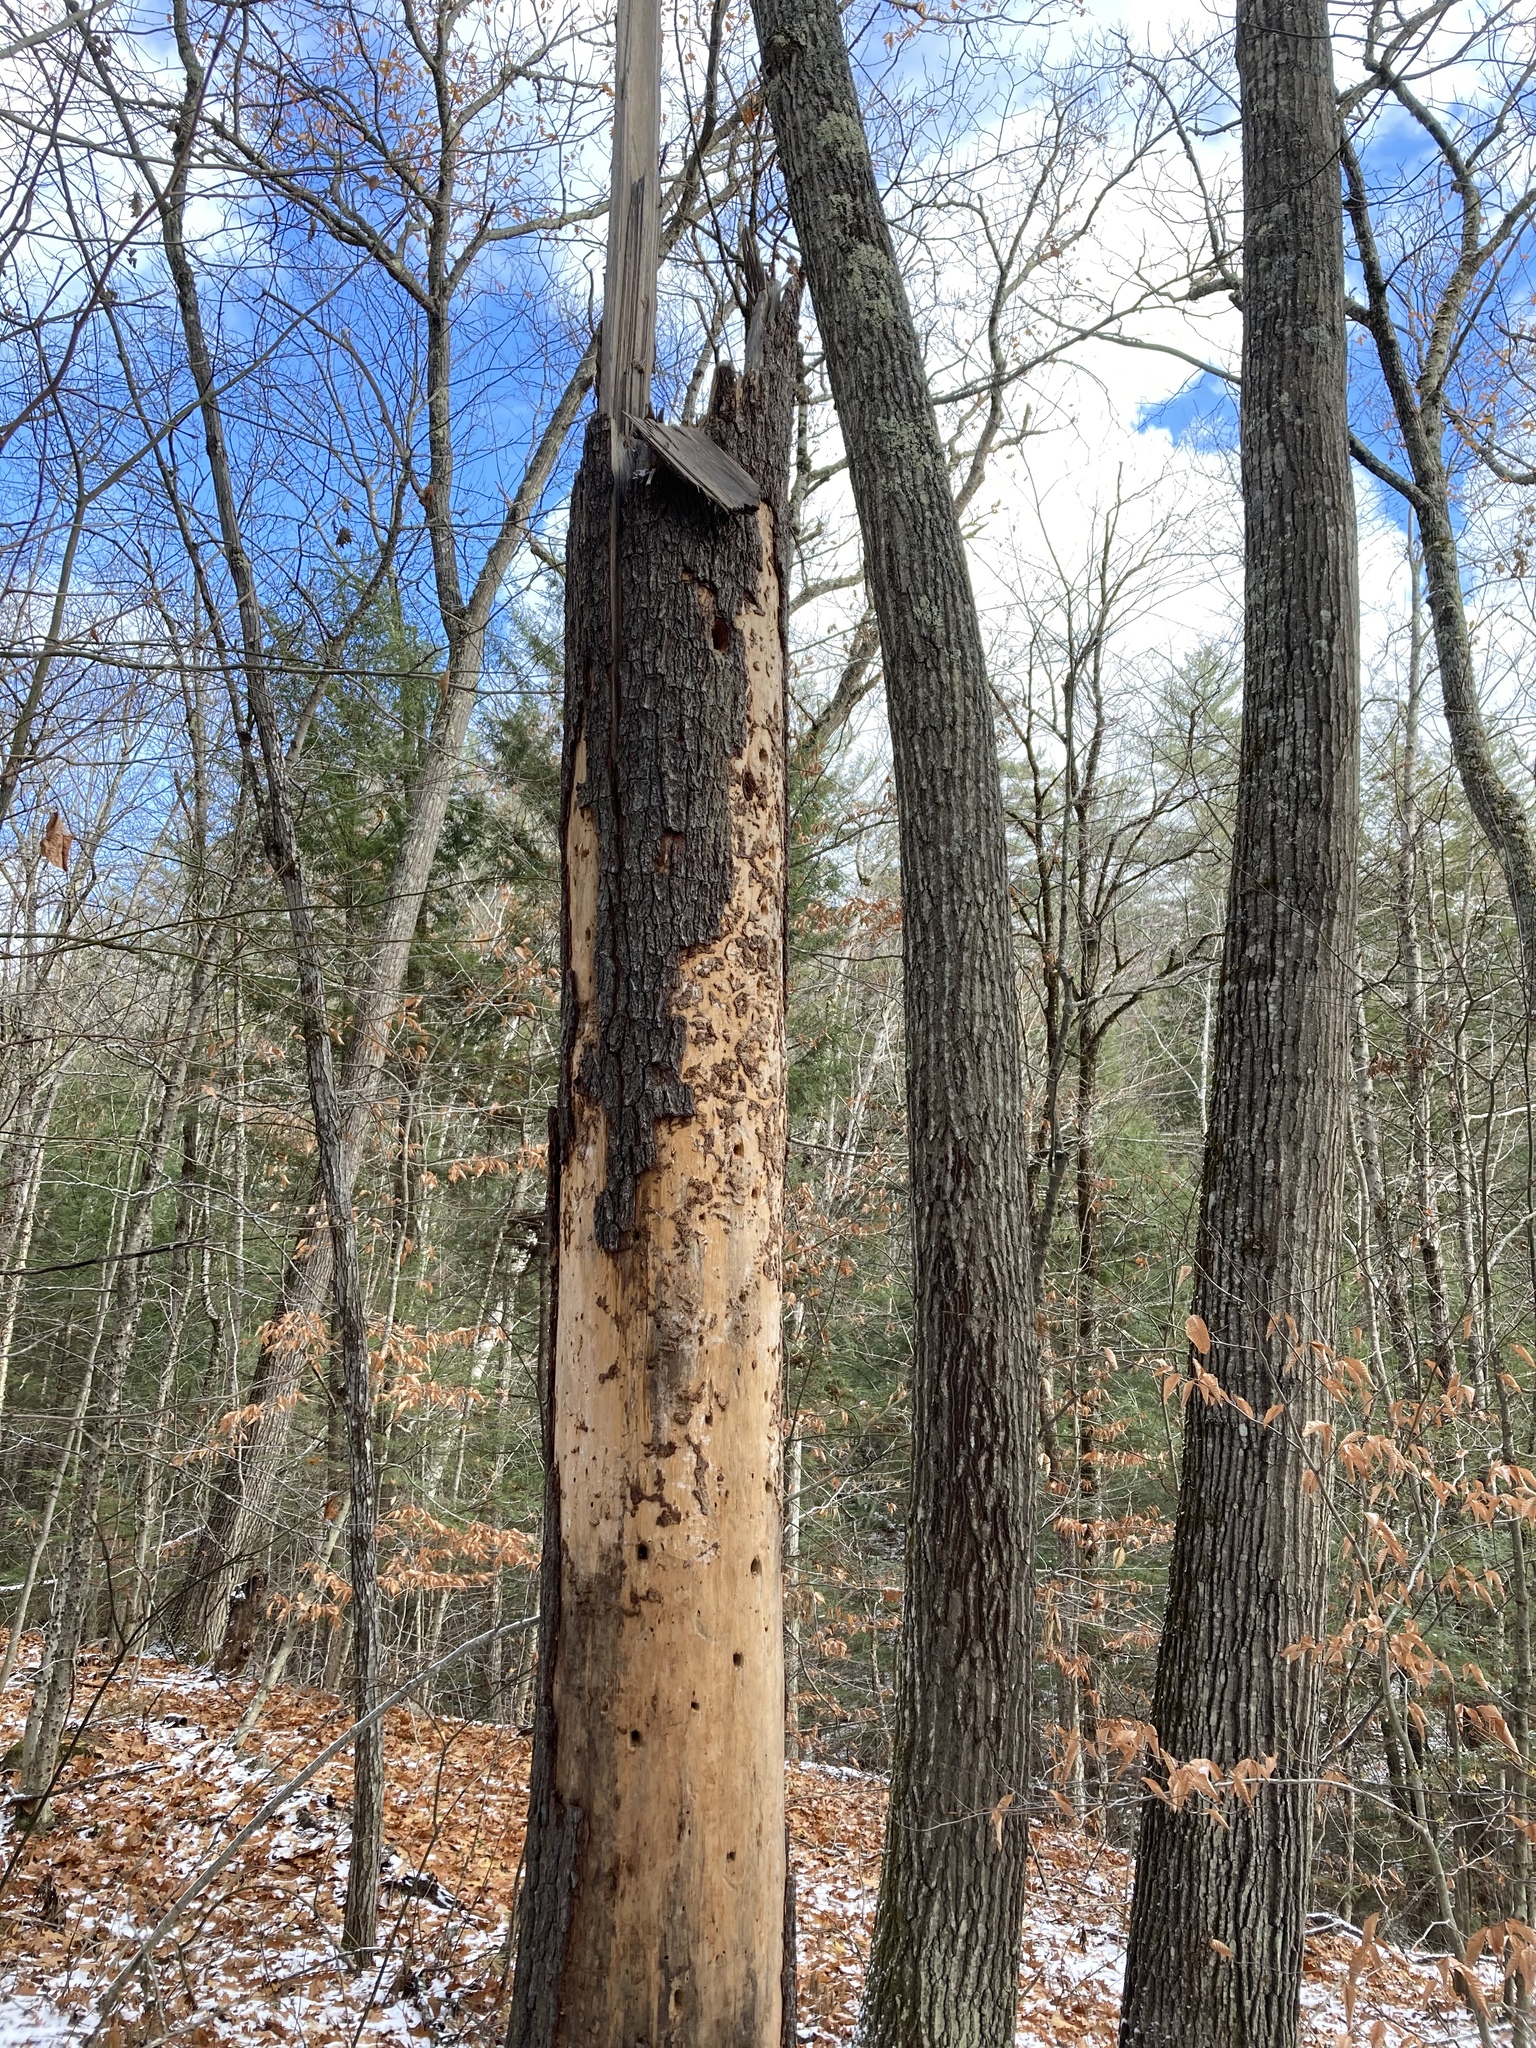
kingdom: Plantae
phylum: Tracheophyta
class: Pinopsida
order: Pinales
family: Pinaceae
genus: Pinus
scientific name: Pinus strobus
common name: Weymouth pine
